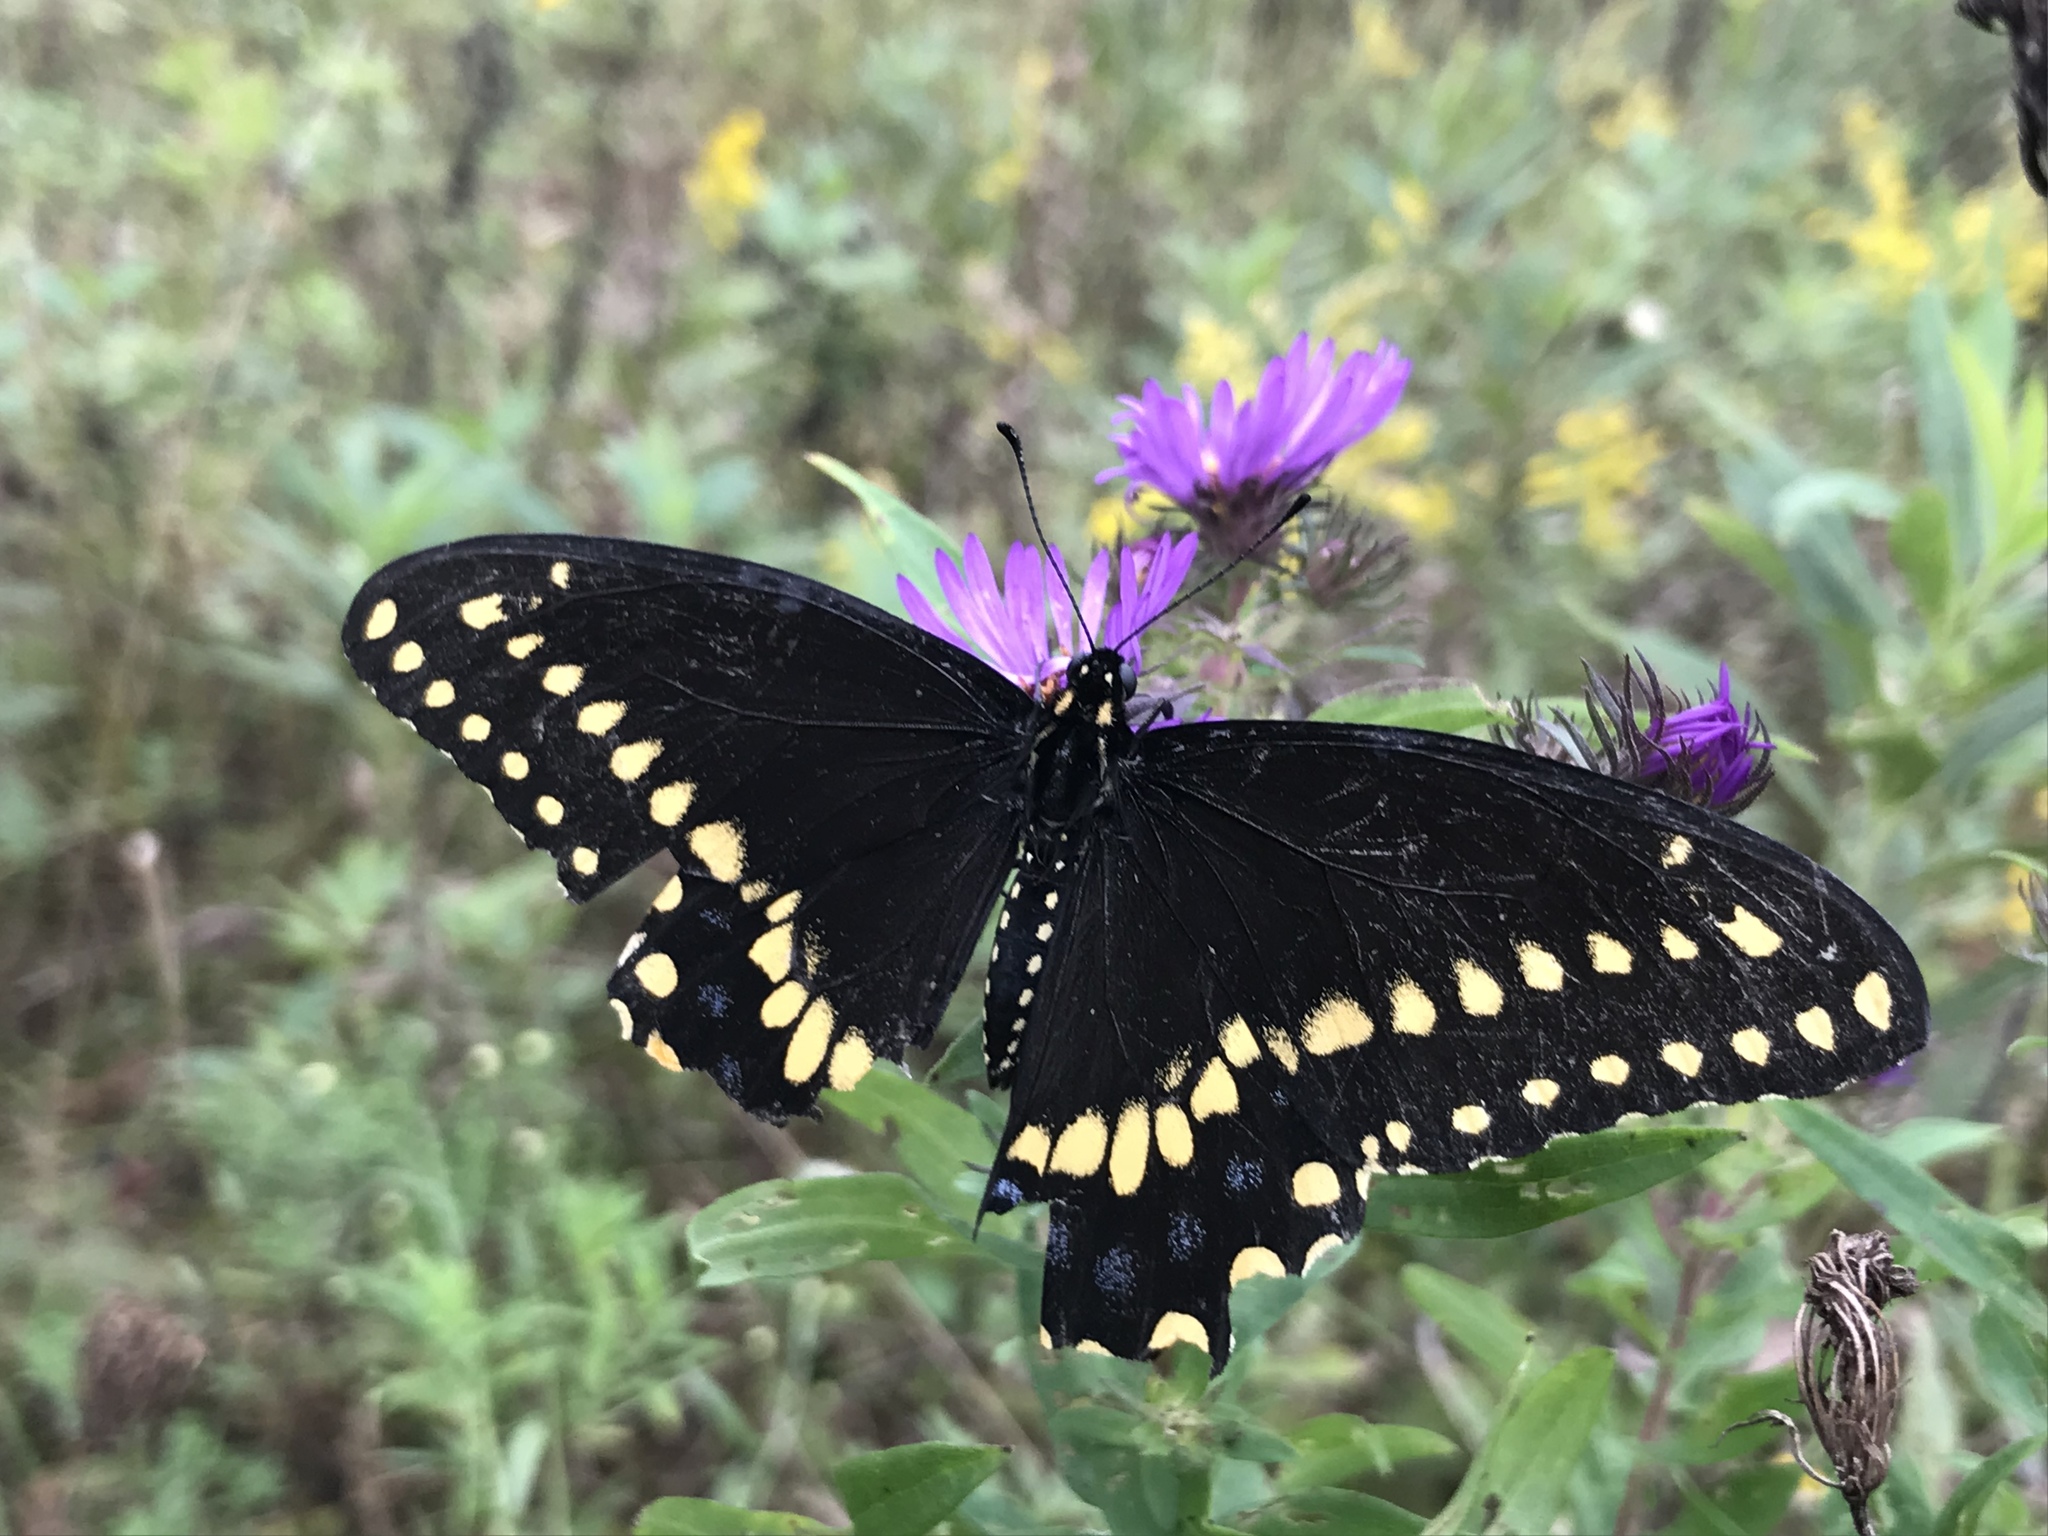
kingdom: Animalia
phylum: Arthropoda
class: Insecta
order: Lepidoptera
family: Papilionidae
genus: Papilio
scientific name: Papilio polyxenes
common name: Black swallowtail
